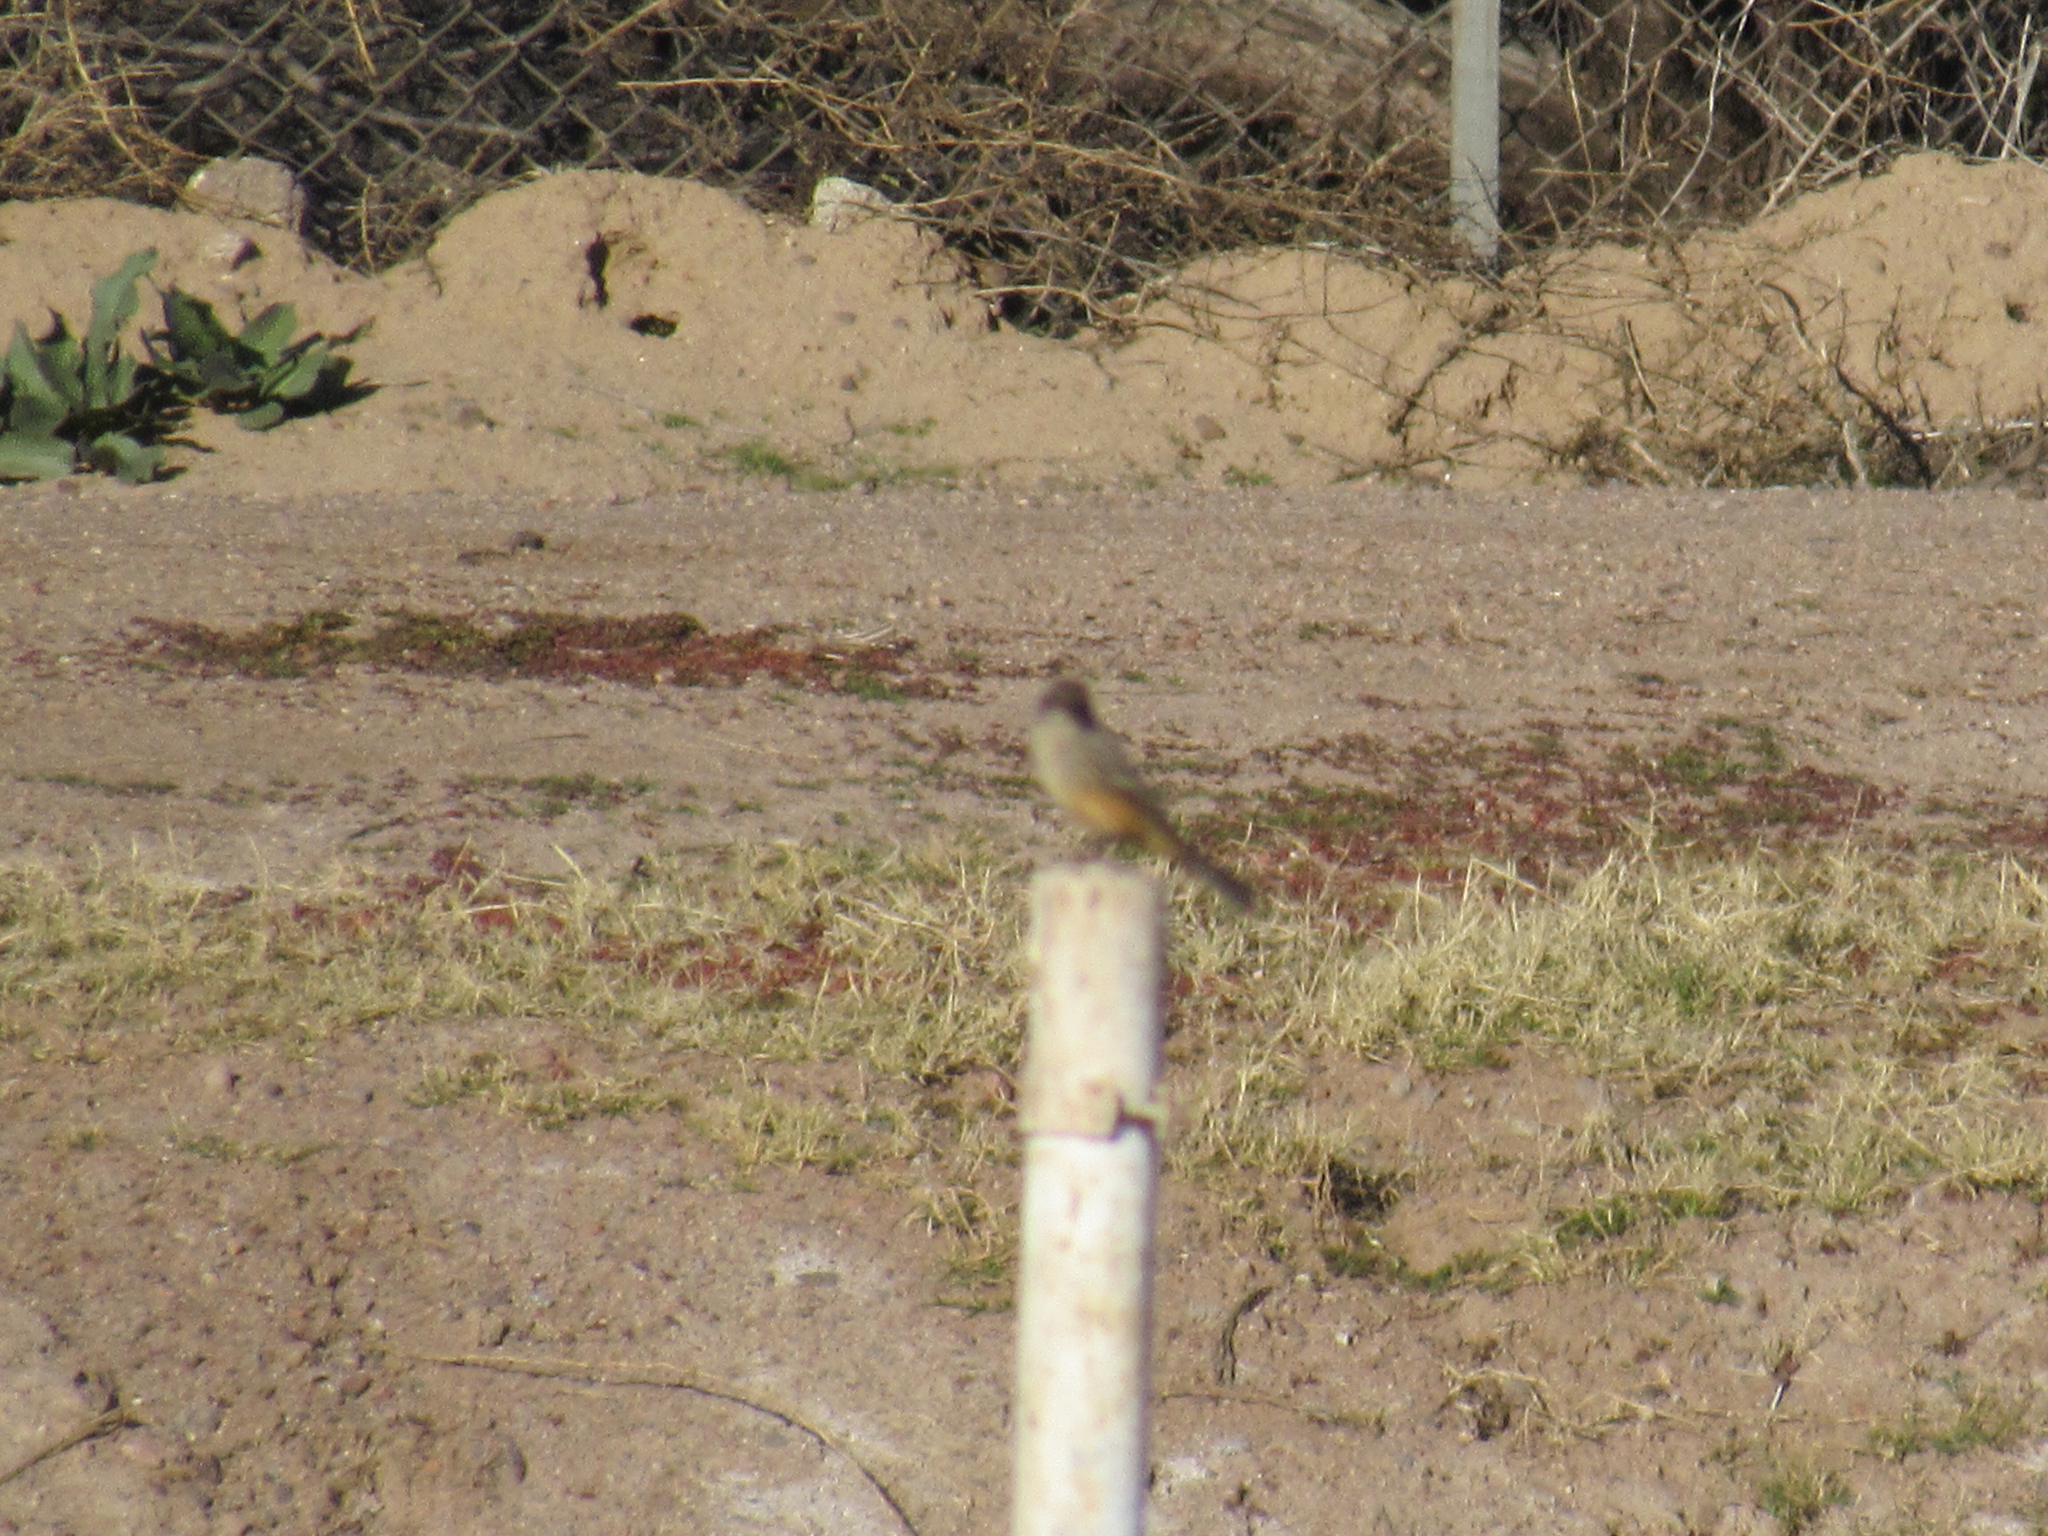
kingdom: Animalia
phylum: Chordata
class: Aves
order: Passeriformes
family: Tyrannidae
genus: Sayornis
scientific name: Sayornis saya
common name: Say's phoebe
